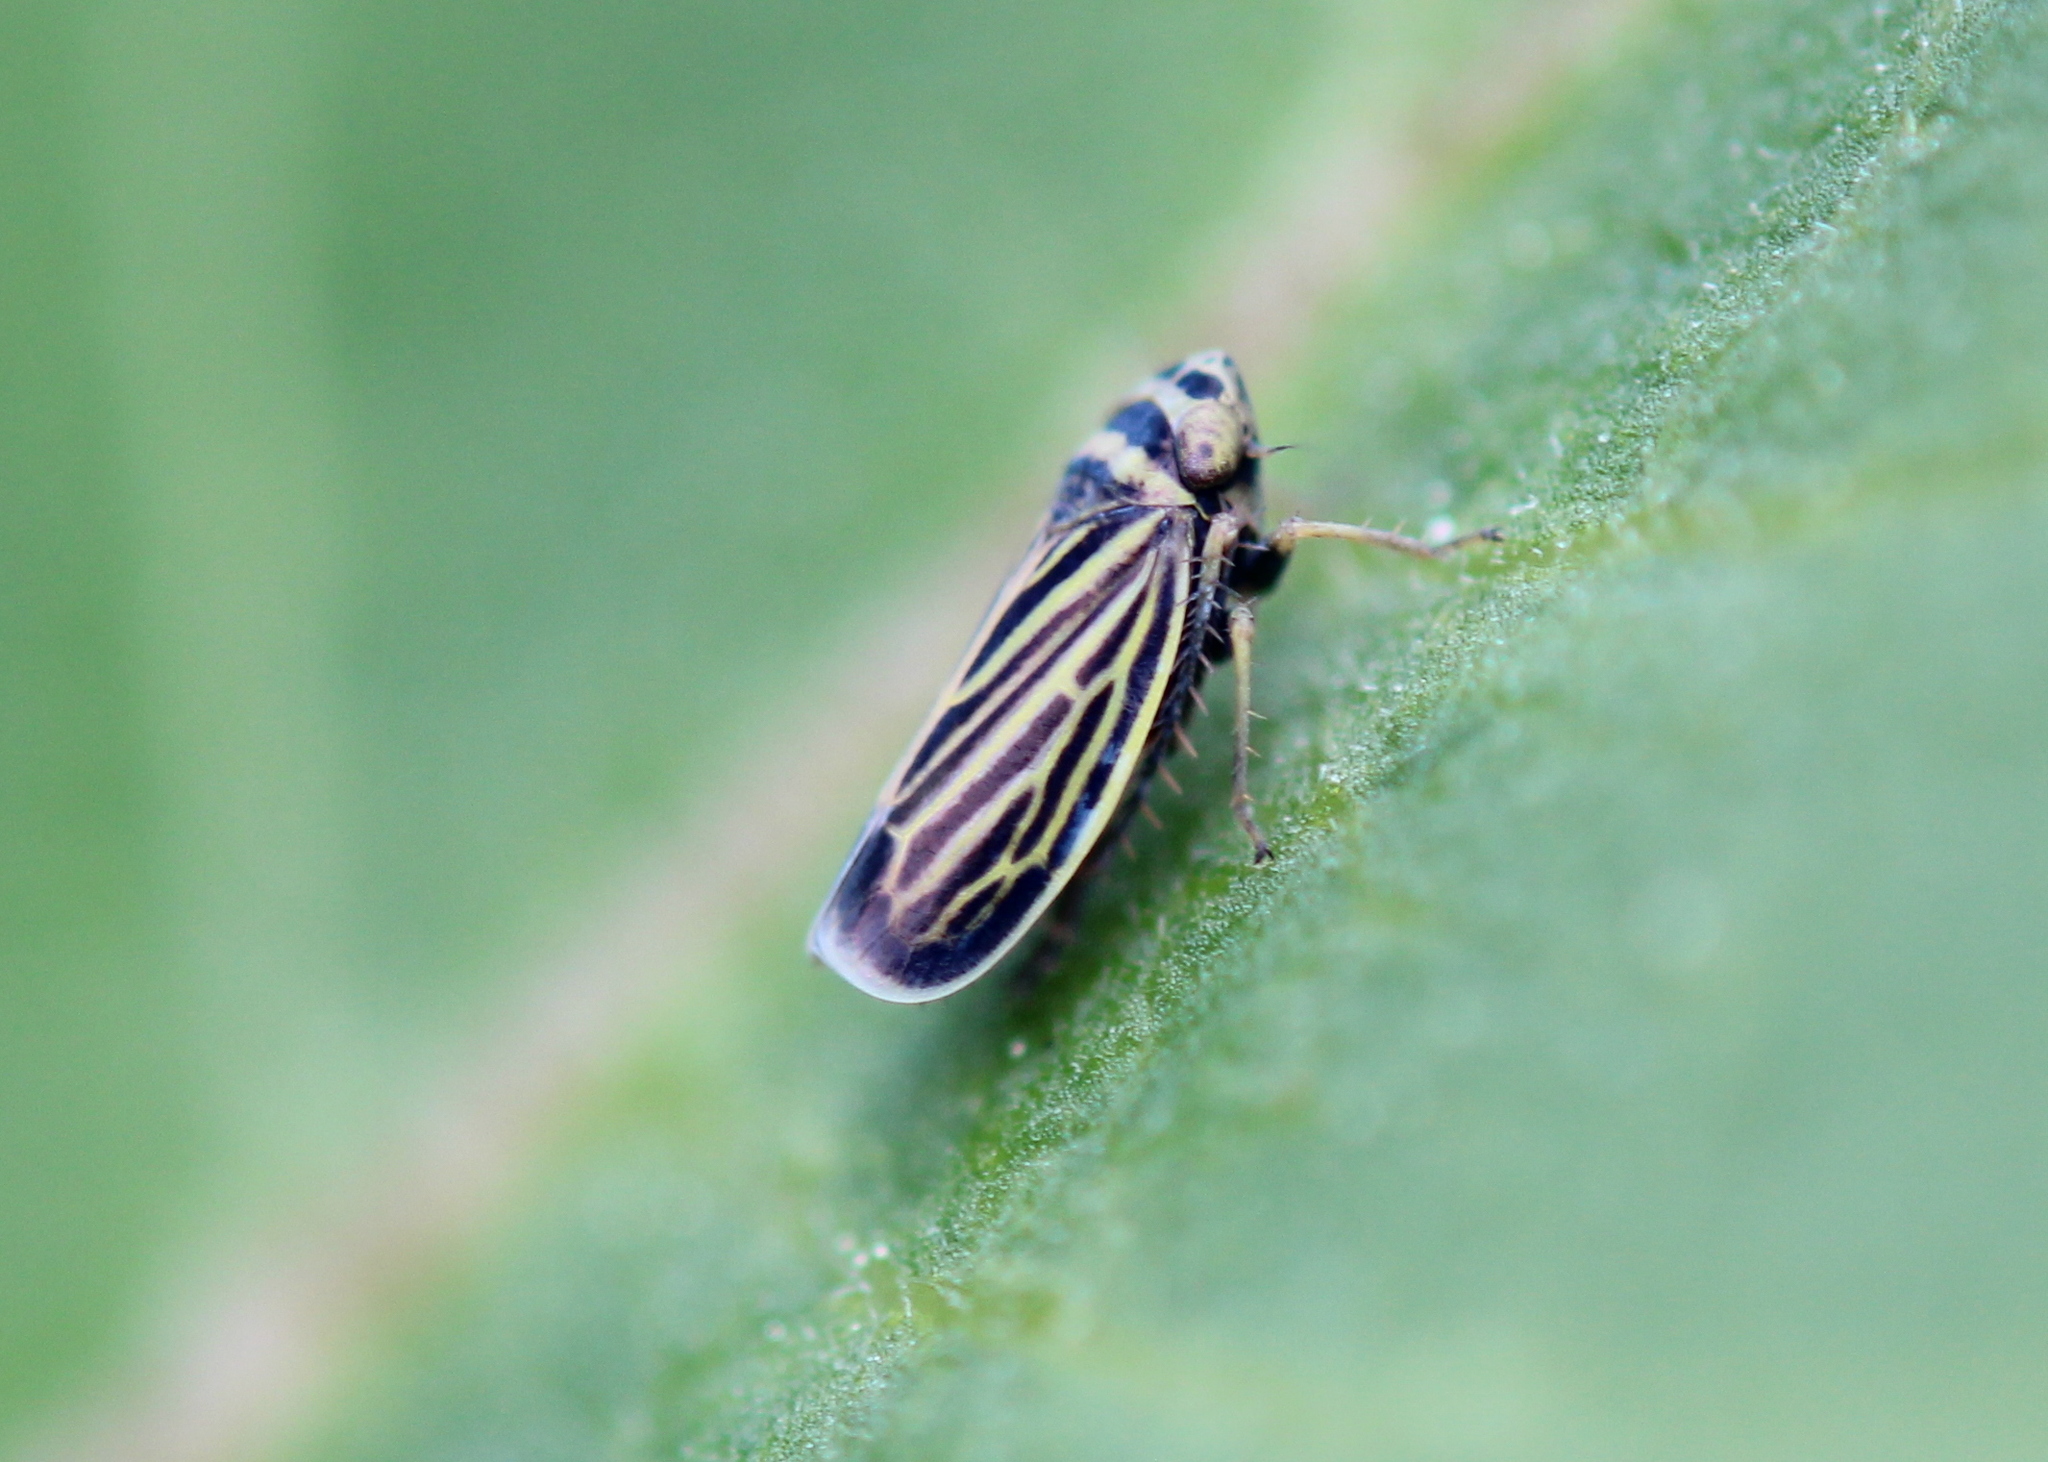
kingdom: Animalia
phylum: Arthropoda
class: Insecta
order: Hemiptera
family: Cicadellidae
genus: Amblysellus
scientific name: Amblysellus curtisii
